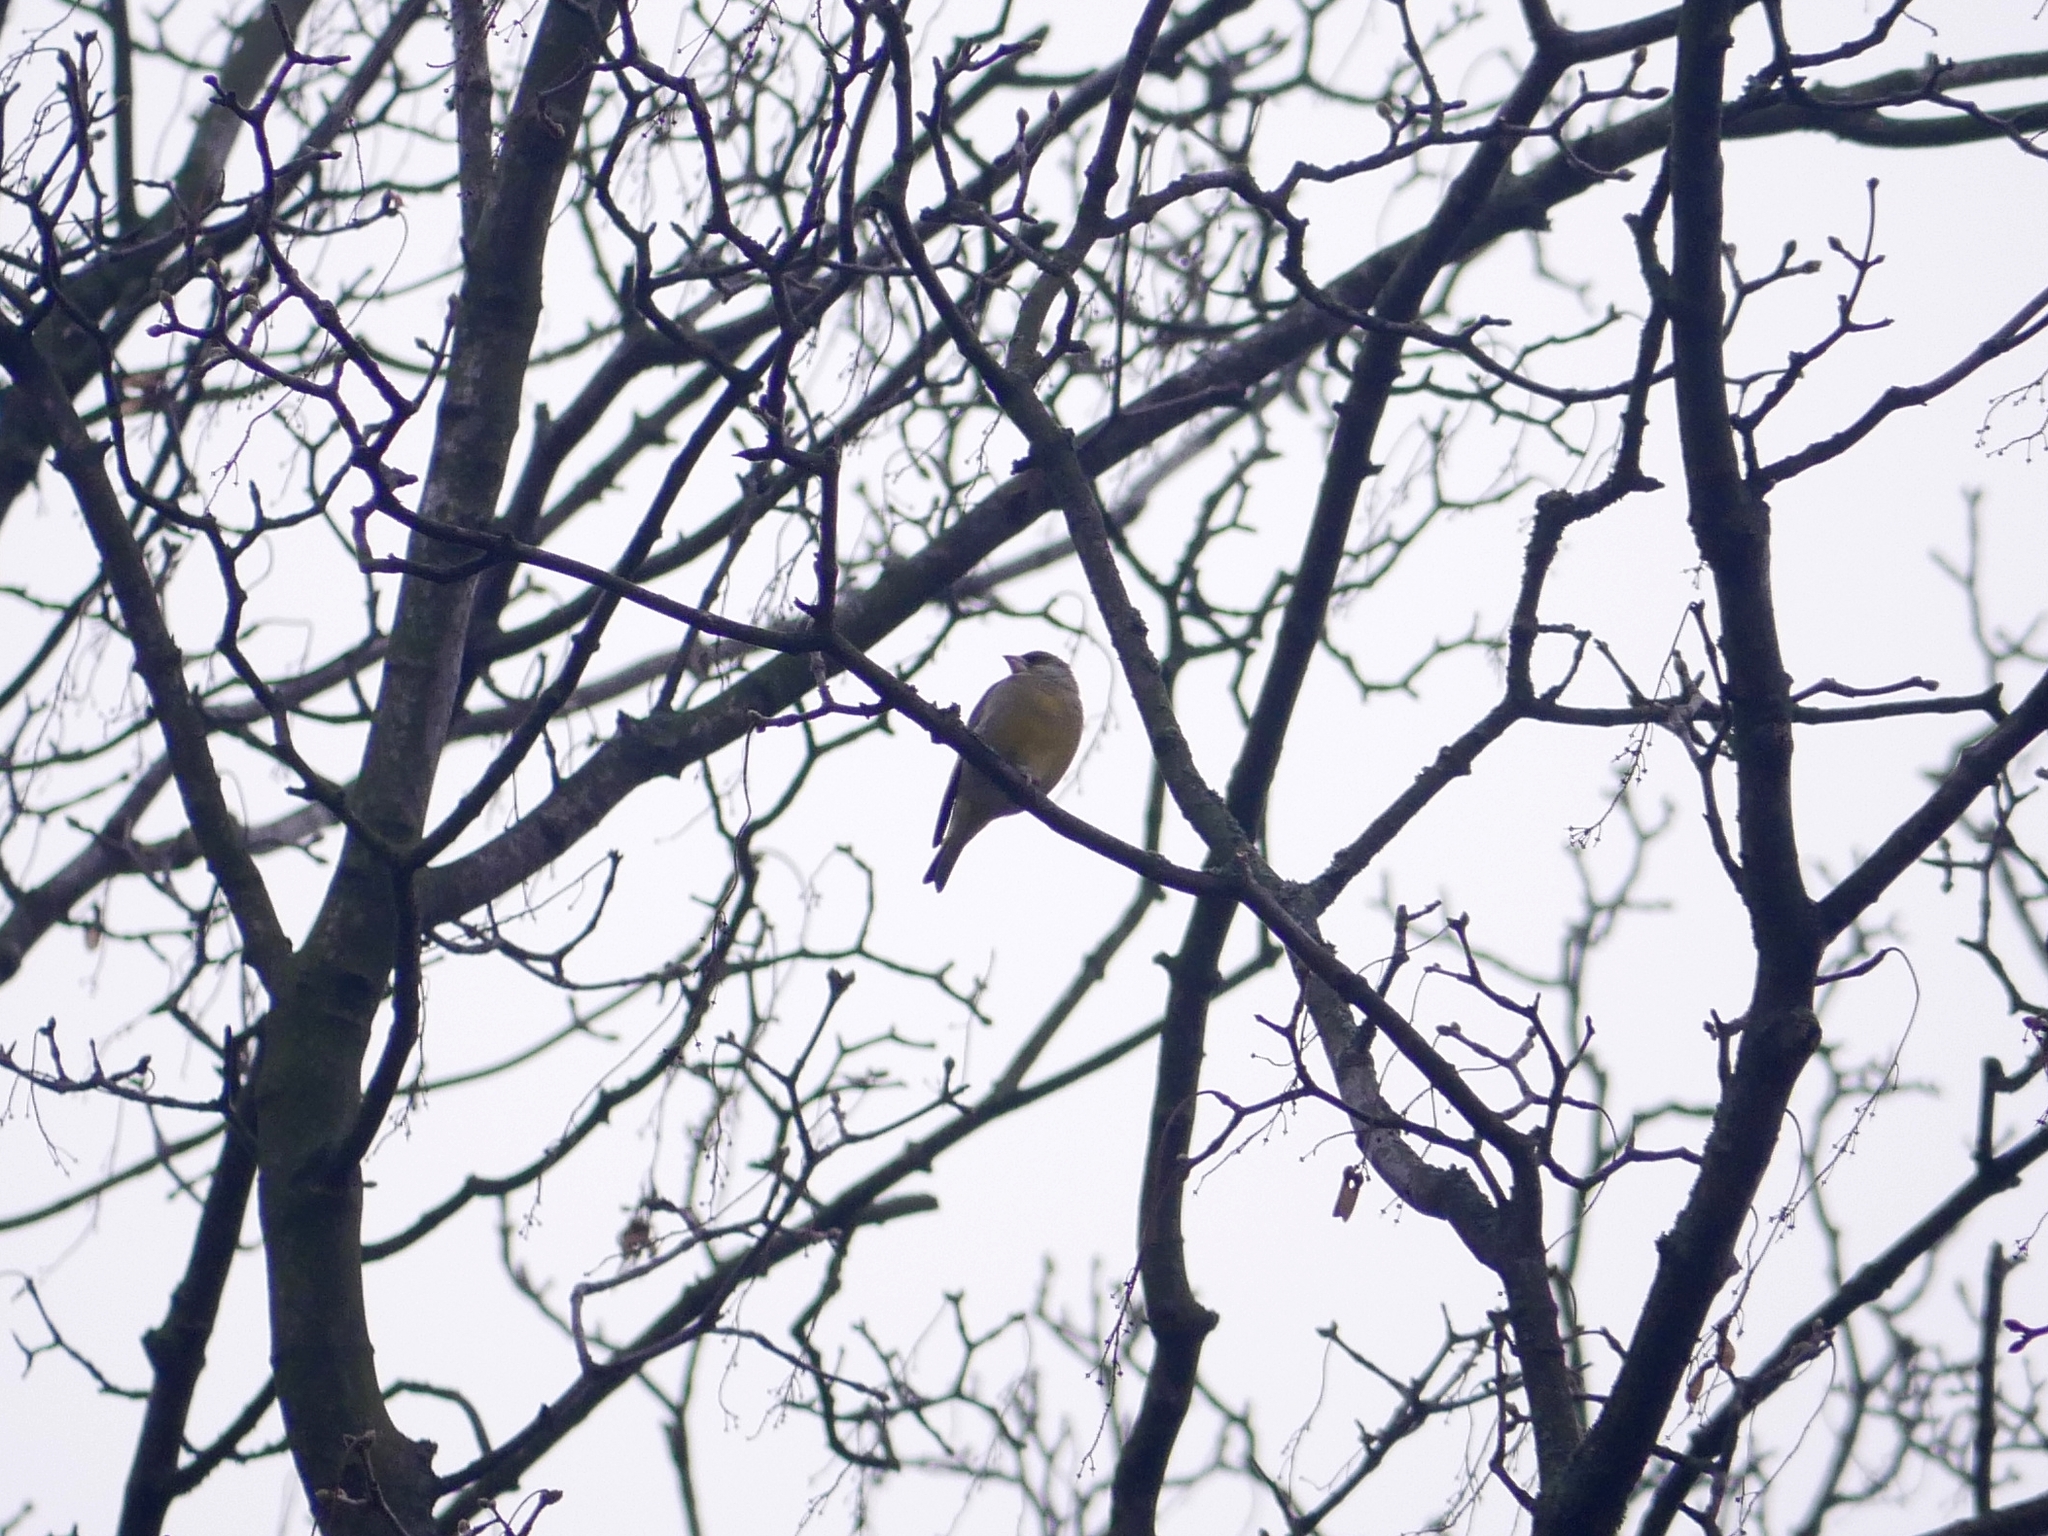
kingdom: Plantae
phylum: Tracheophyta
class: Liliopsida
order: Poales
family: Poaceae
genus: Chloris
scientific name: Chloris chloris
